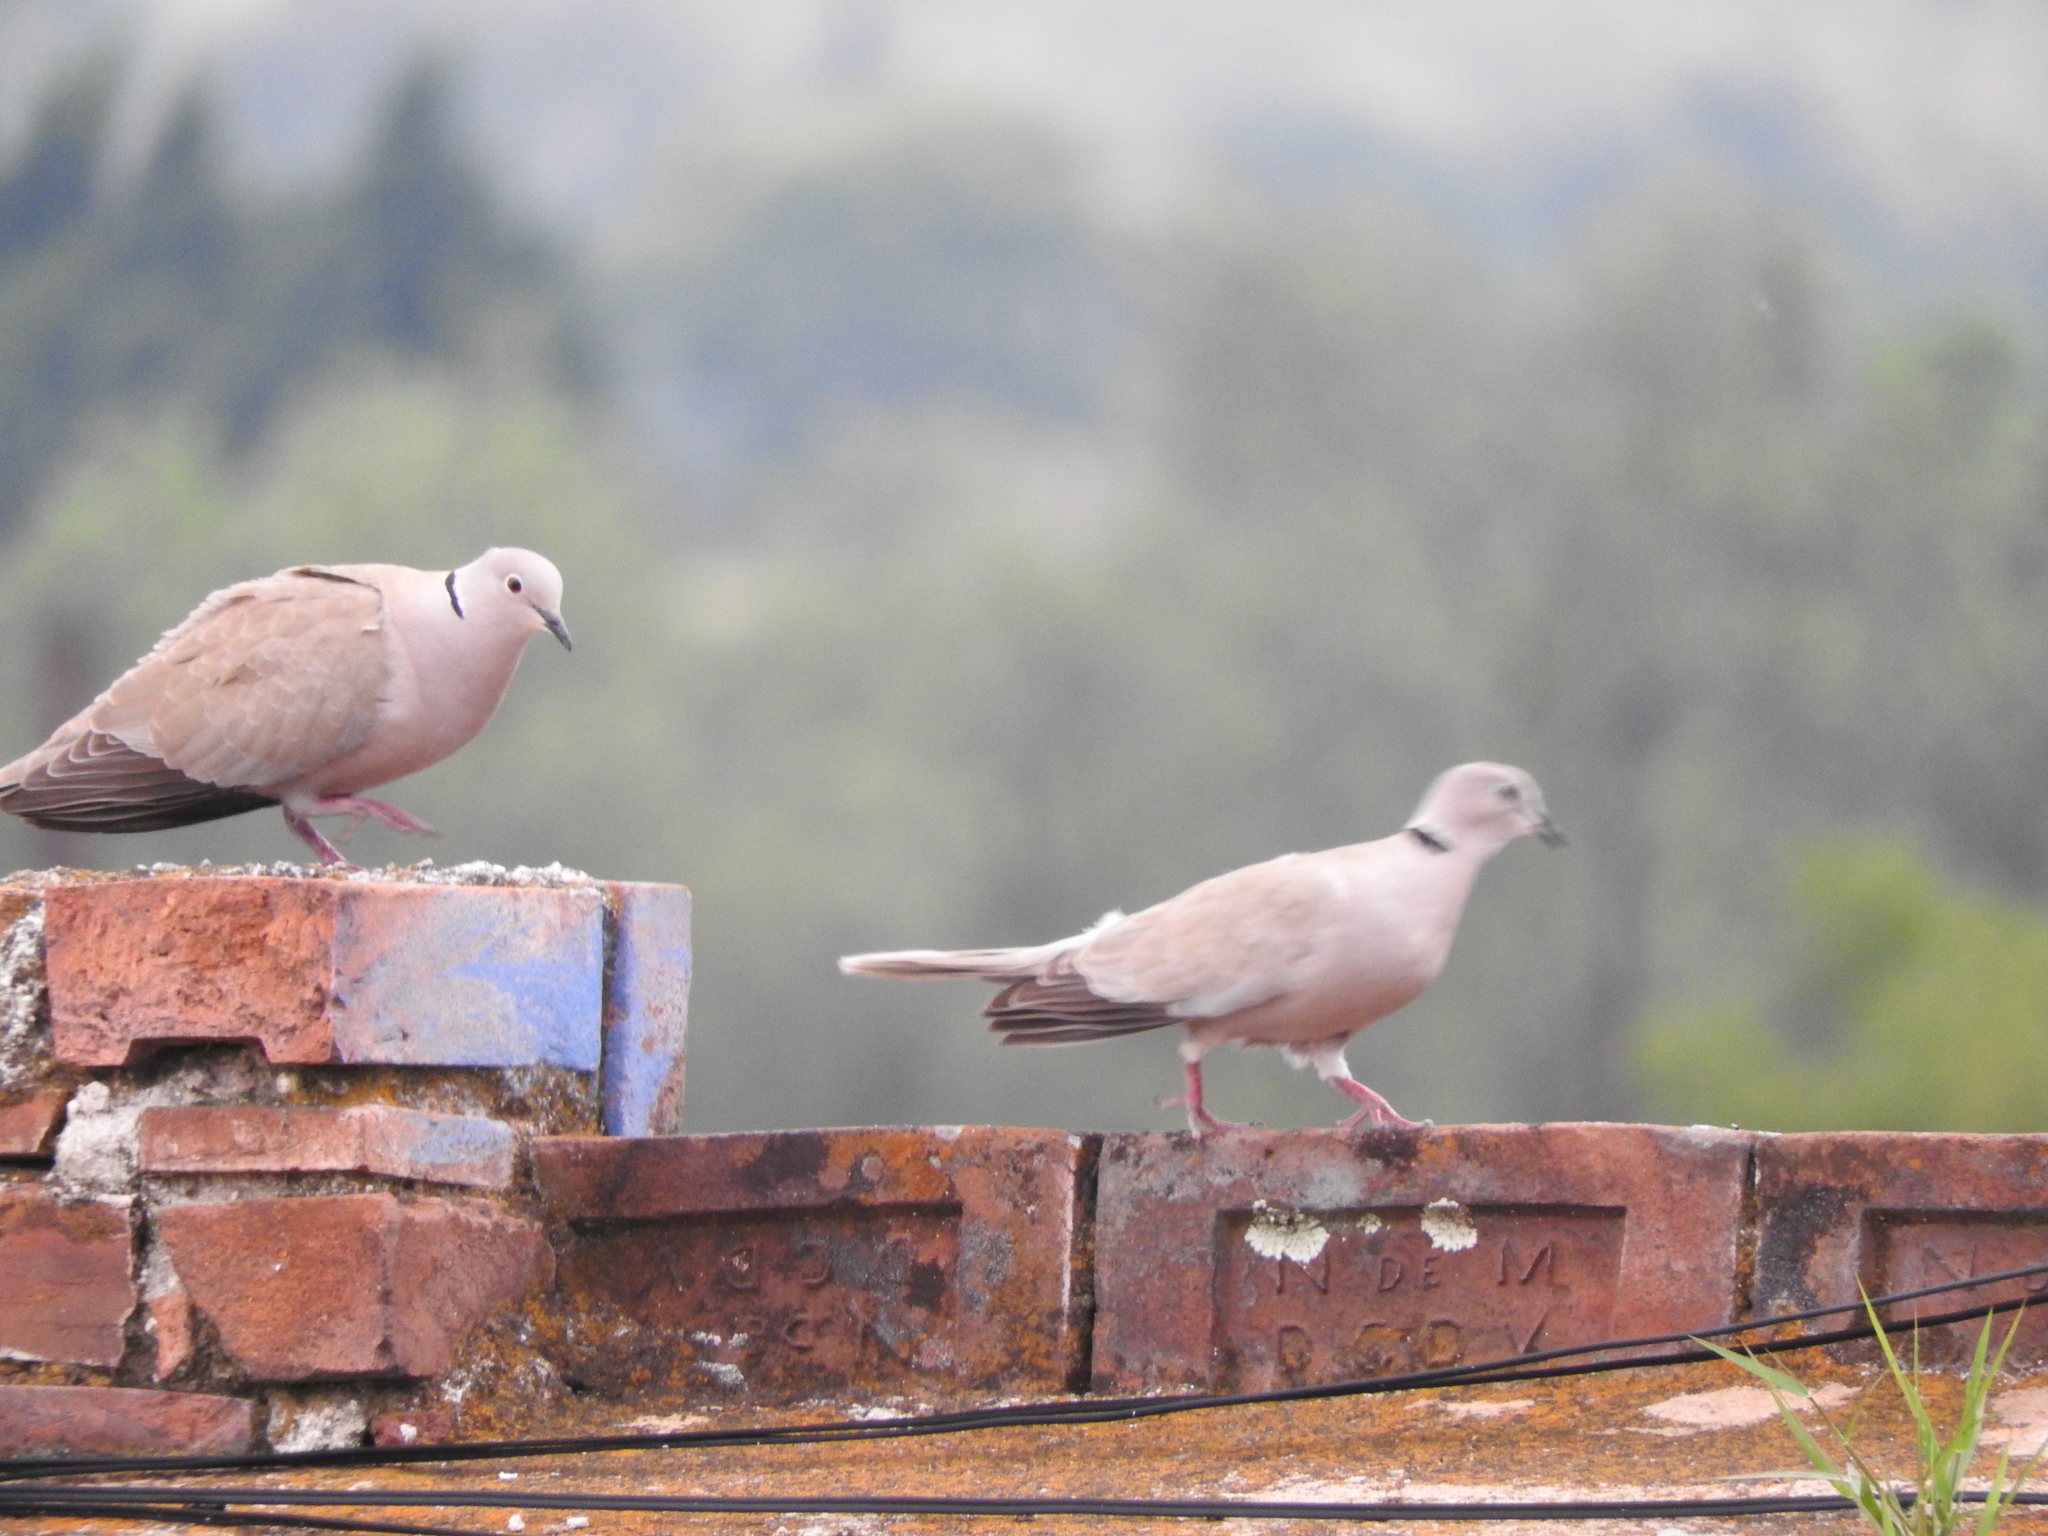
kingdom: Animalia
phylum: Chordata
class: Aves
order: Columbiformes
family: Columbidae
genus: Streptopelia
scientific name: Streptopelia decaocto
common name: Eurasian collared dove
